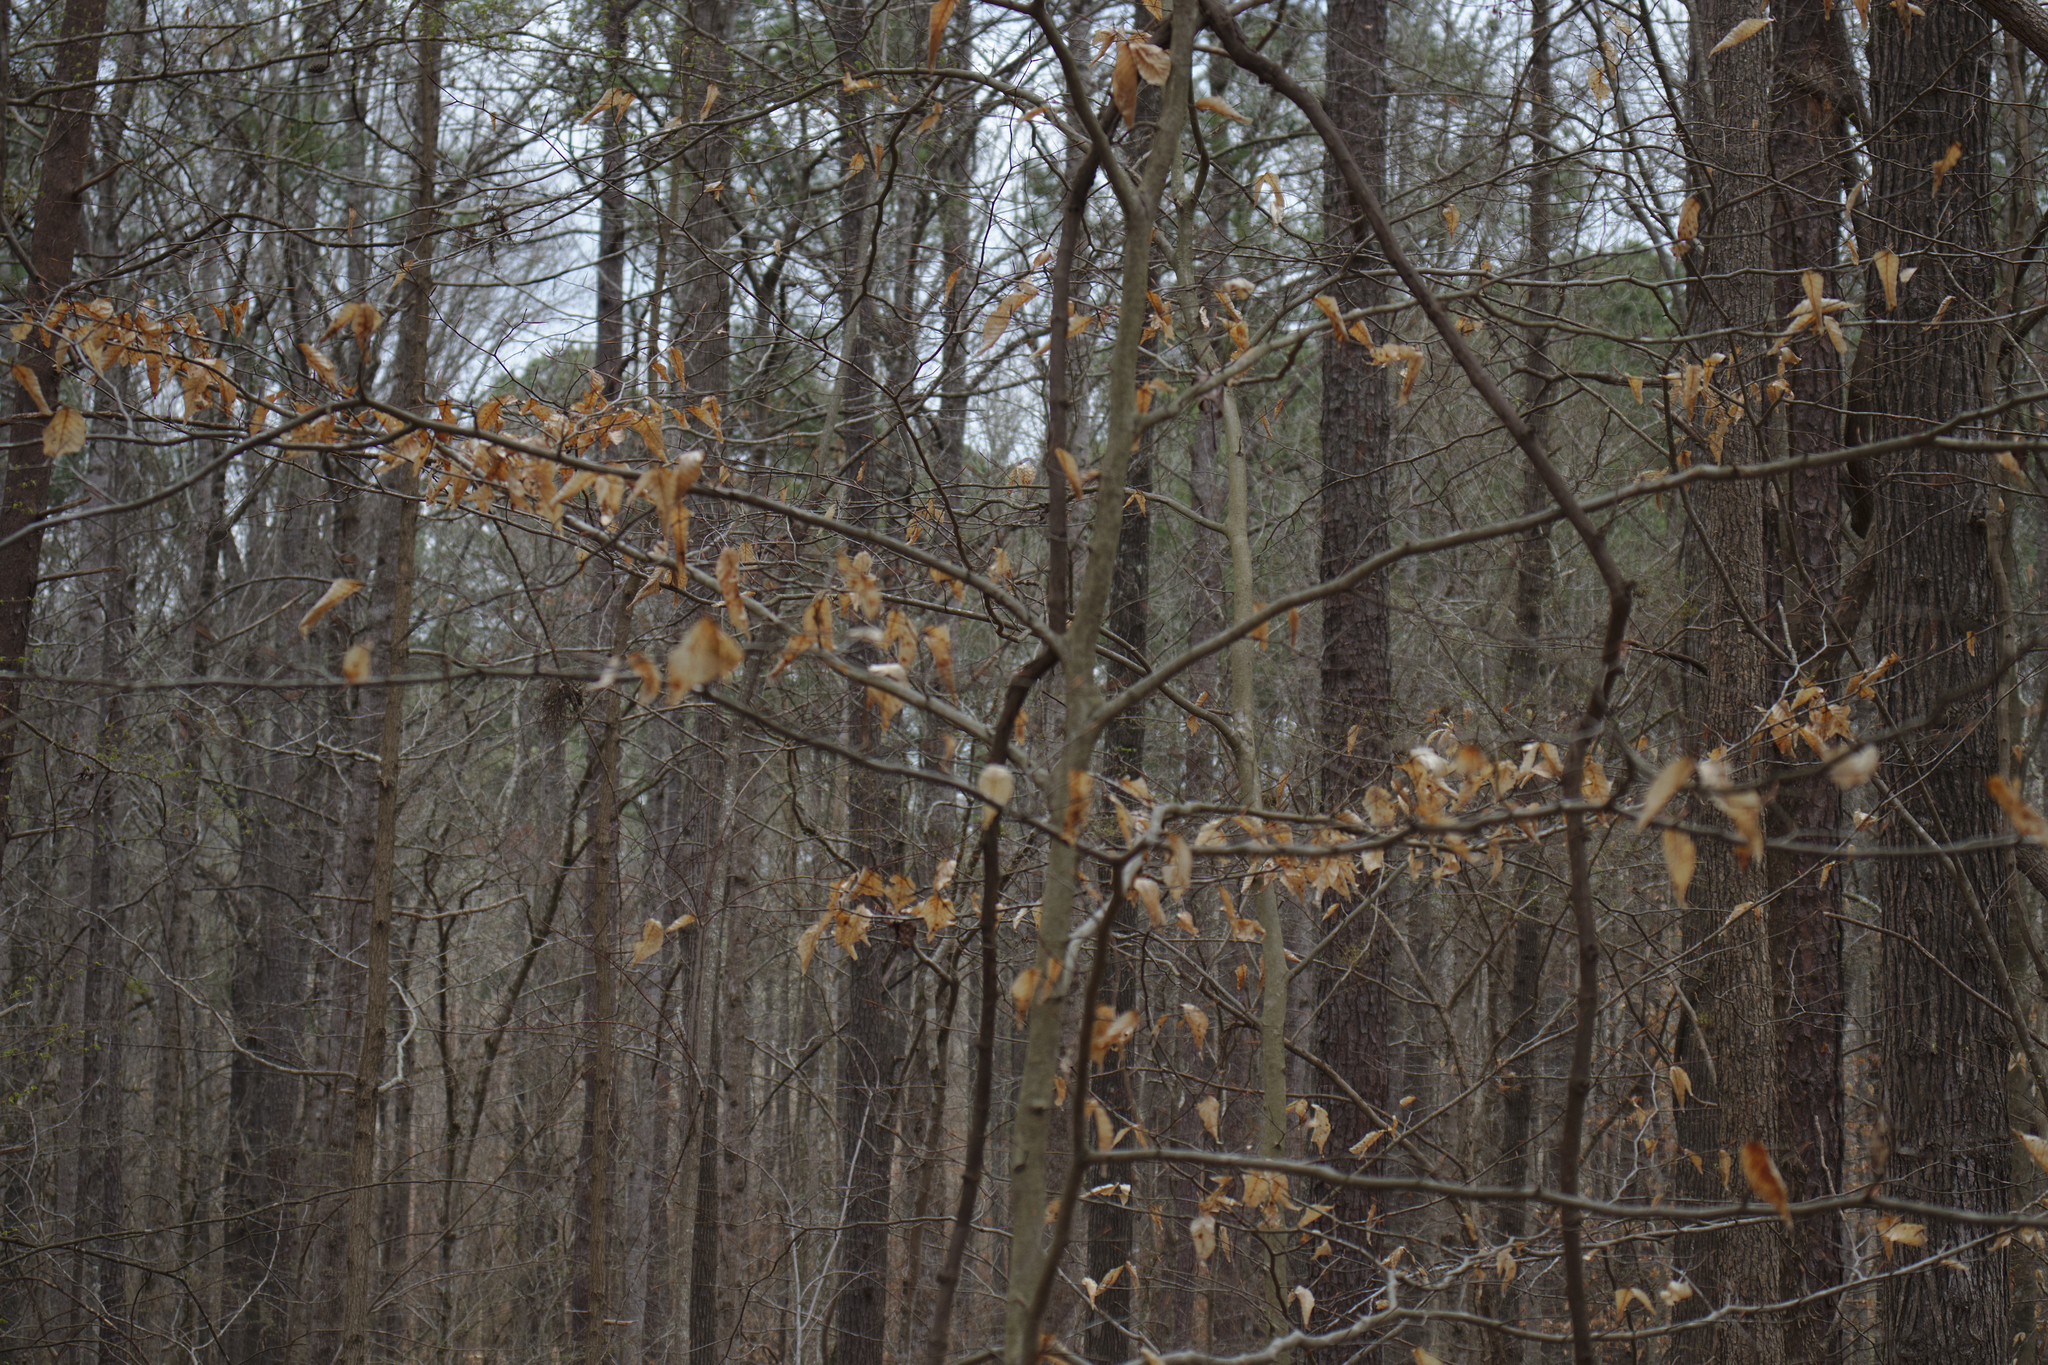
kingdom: Plantae
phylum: Tracheophyta
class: Magnoliopsida
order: Fagales
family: Fagaceae
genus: Fagus
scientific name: Fagus grandifolia
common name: American beech
